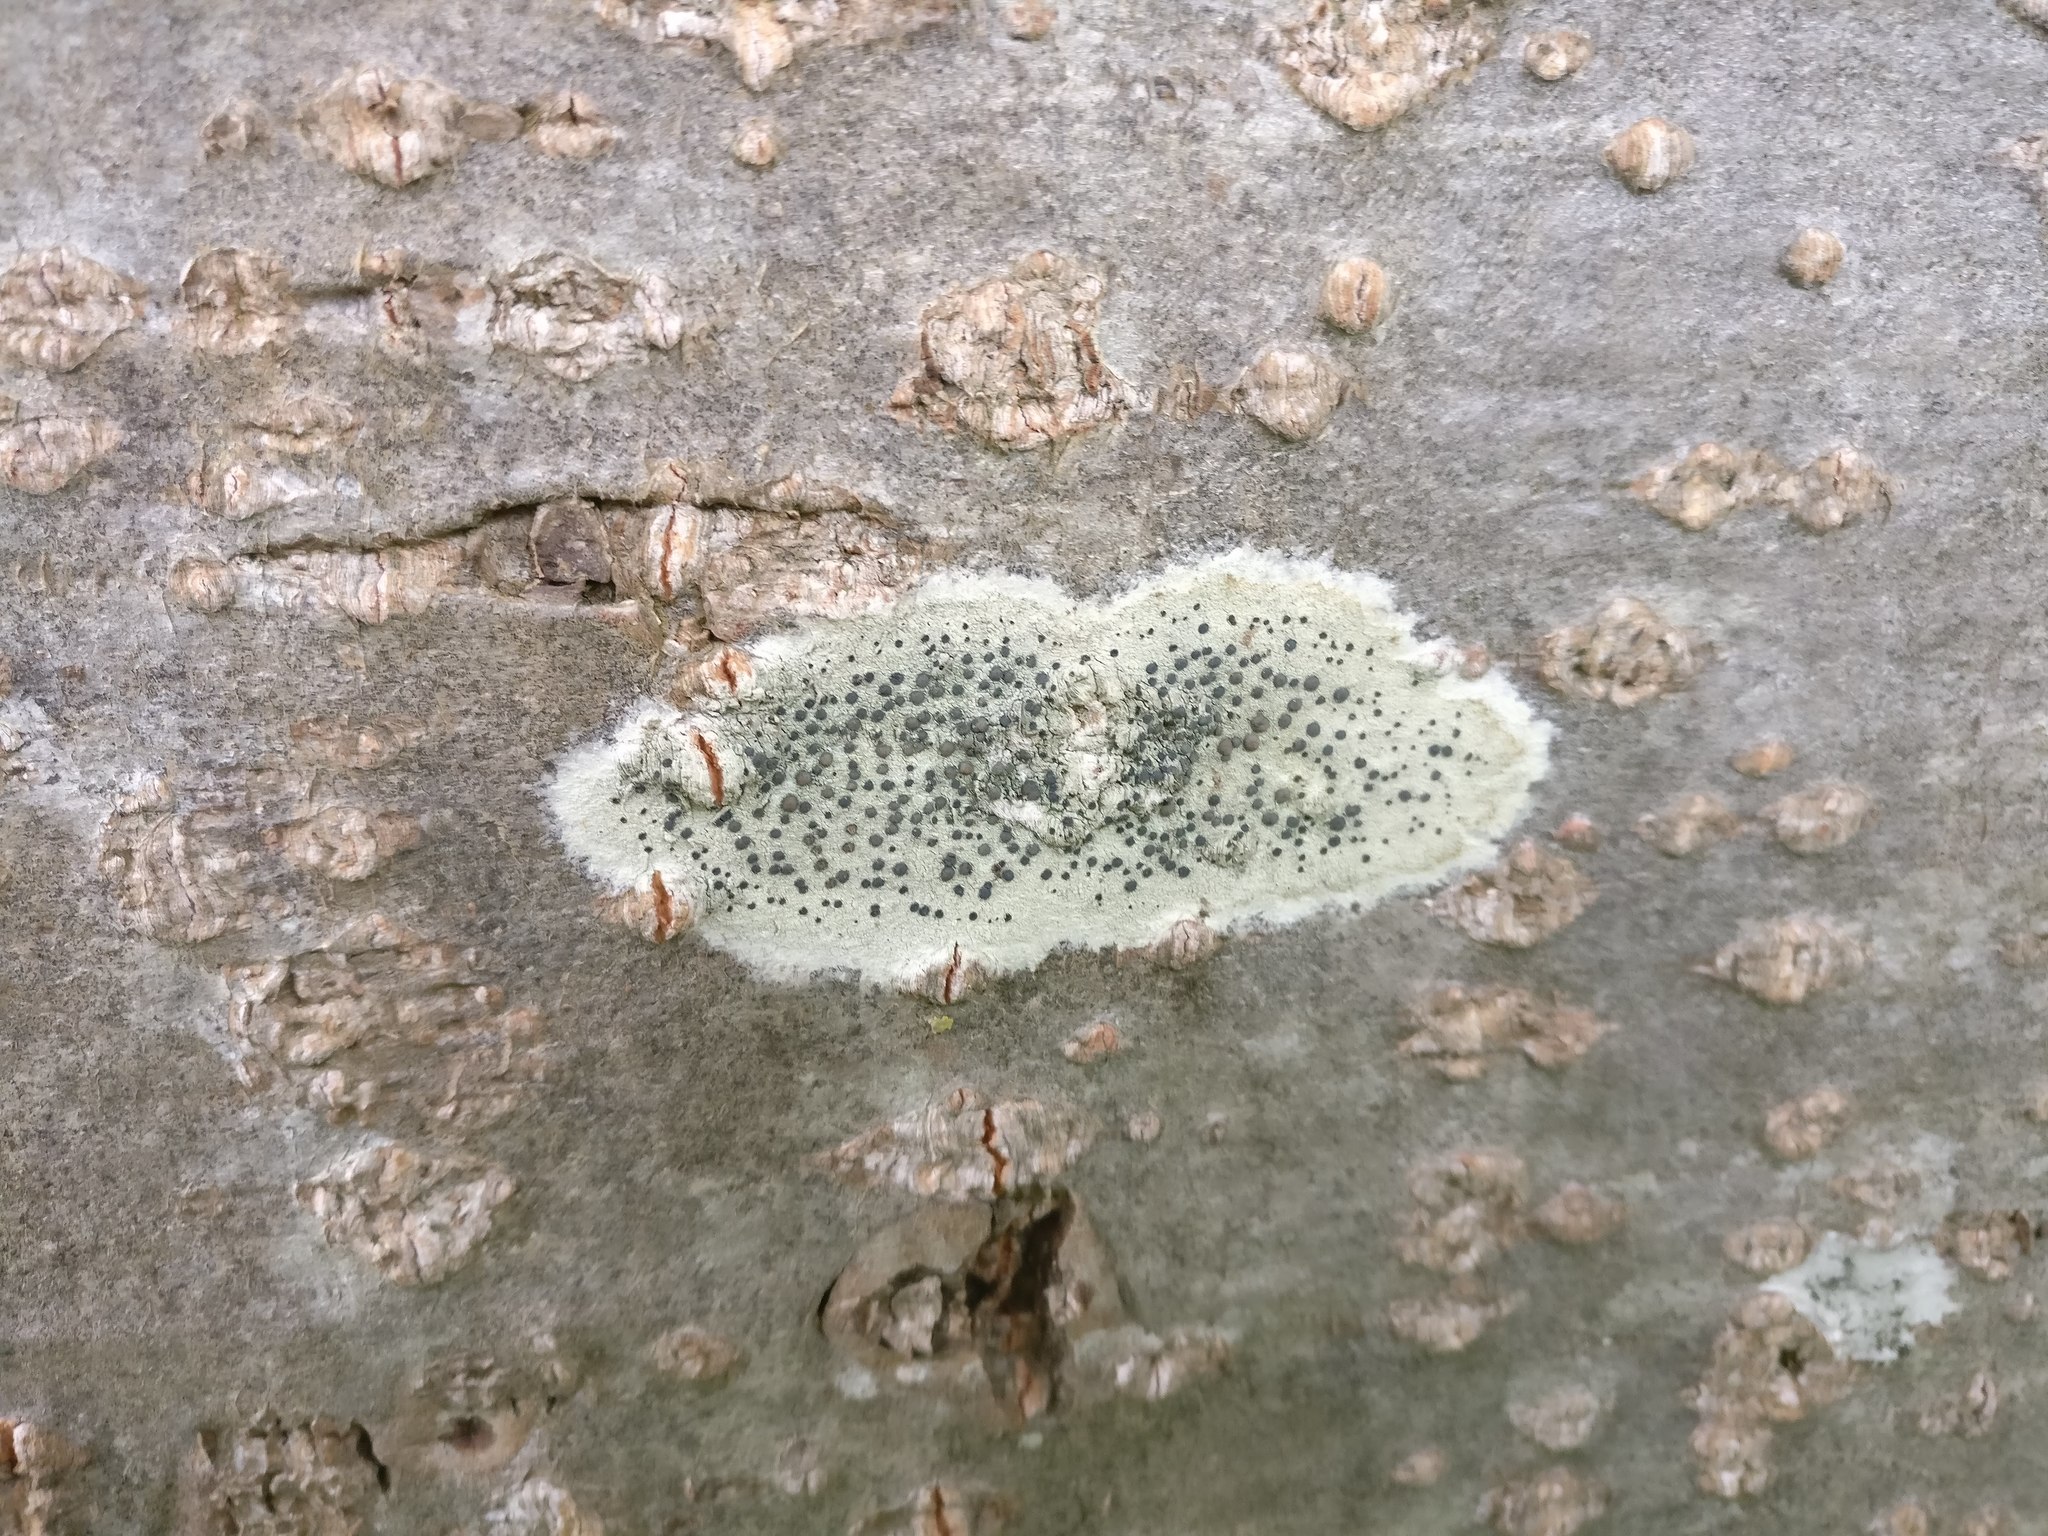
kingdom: Fungi
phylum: Ascomycota
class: Lecanoromycetes
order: Lecanorales
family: Lecanoraceae
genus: Lecidella
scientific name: Lecidella elaeochroma
